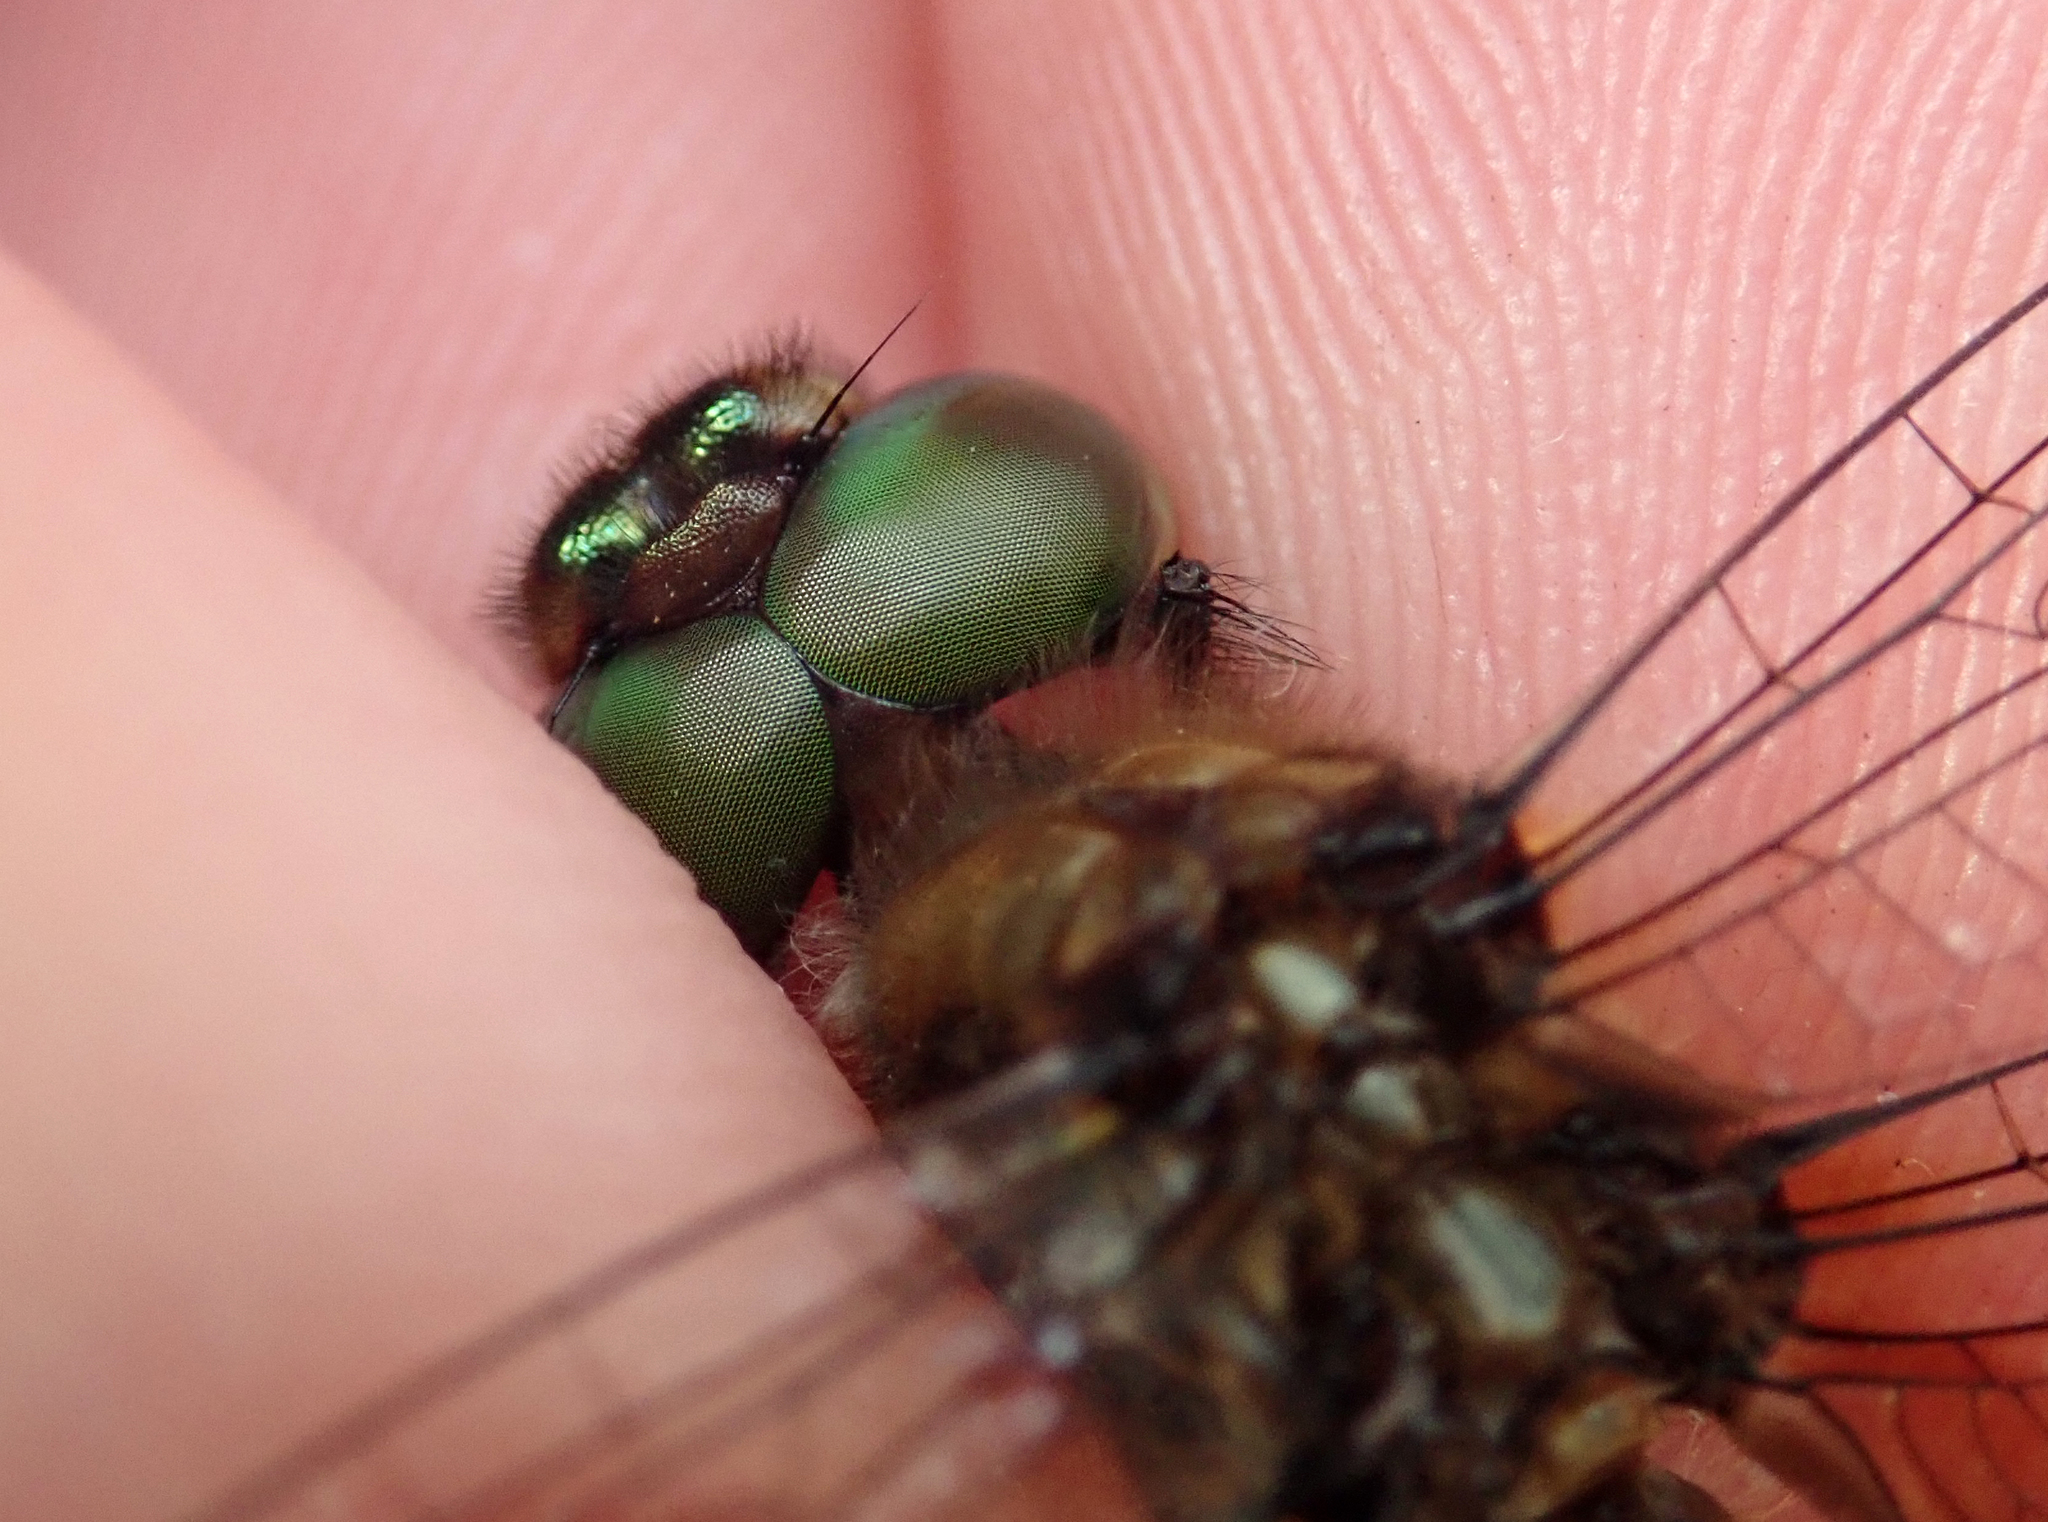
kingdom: Animalia
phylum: Arthropoda
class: Insecta
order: Odonata
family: Corduliidae
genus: Hemicordulia
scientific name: Hemicordulia armstrongi
